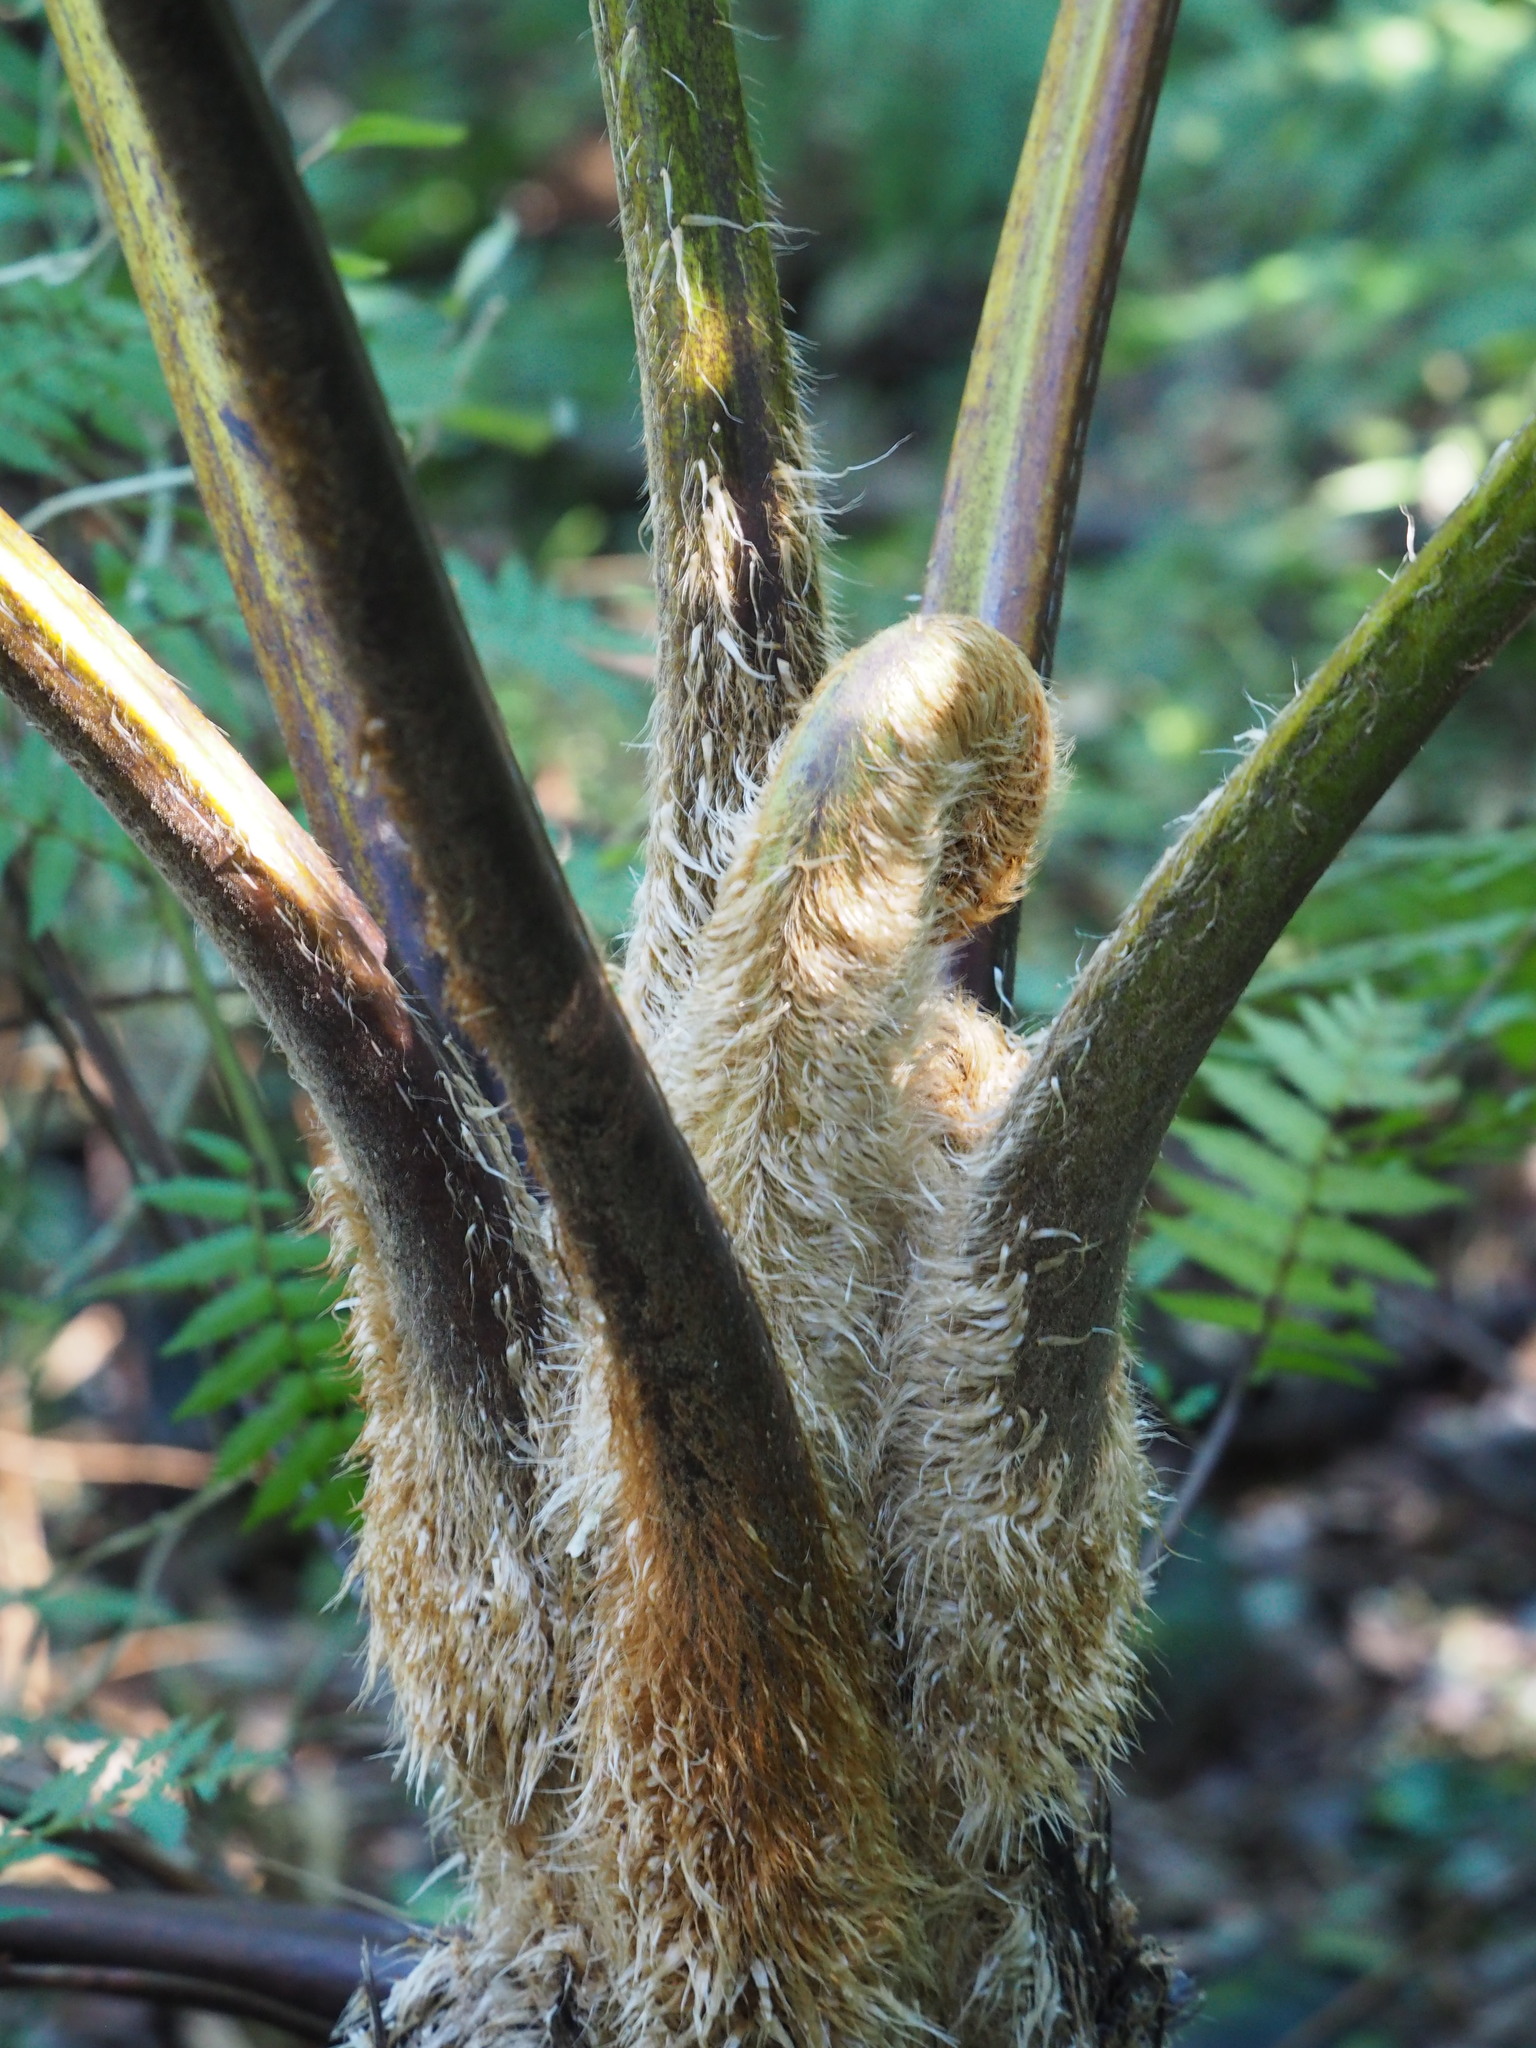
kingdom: Plantae
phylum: Tracheophyta
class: Polypodiopsida
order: Cyatheales
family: Cyatheaceae
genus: Alsophila
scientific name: Alsophila lepifera
